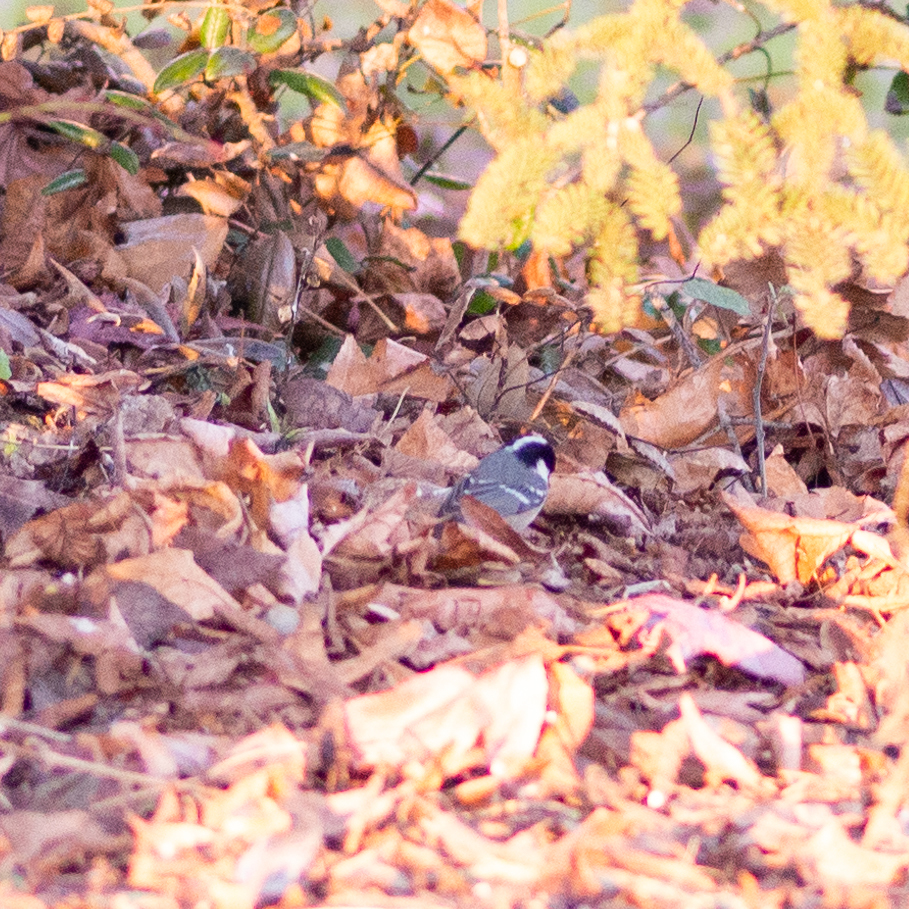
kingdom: Animalia
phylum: Chordata
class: Aves
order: Passeriformes
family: Paridae
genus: Periparus
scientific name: Periparus ater
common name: Coal tit
